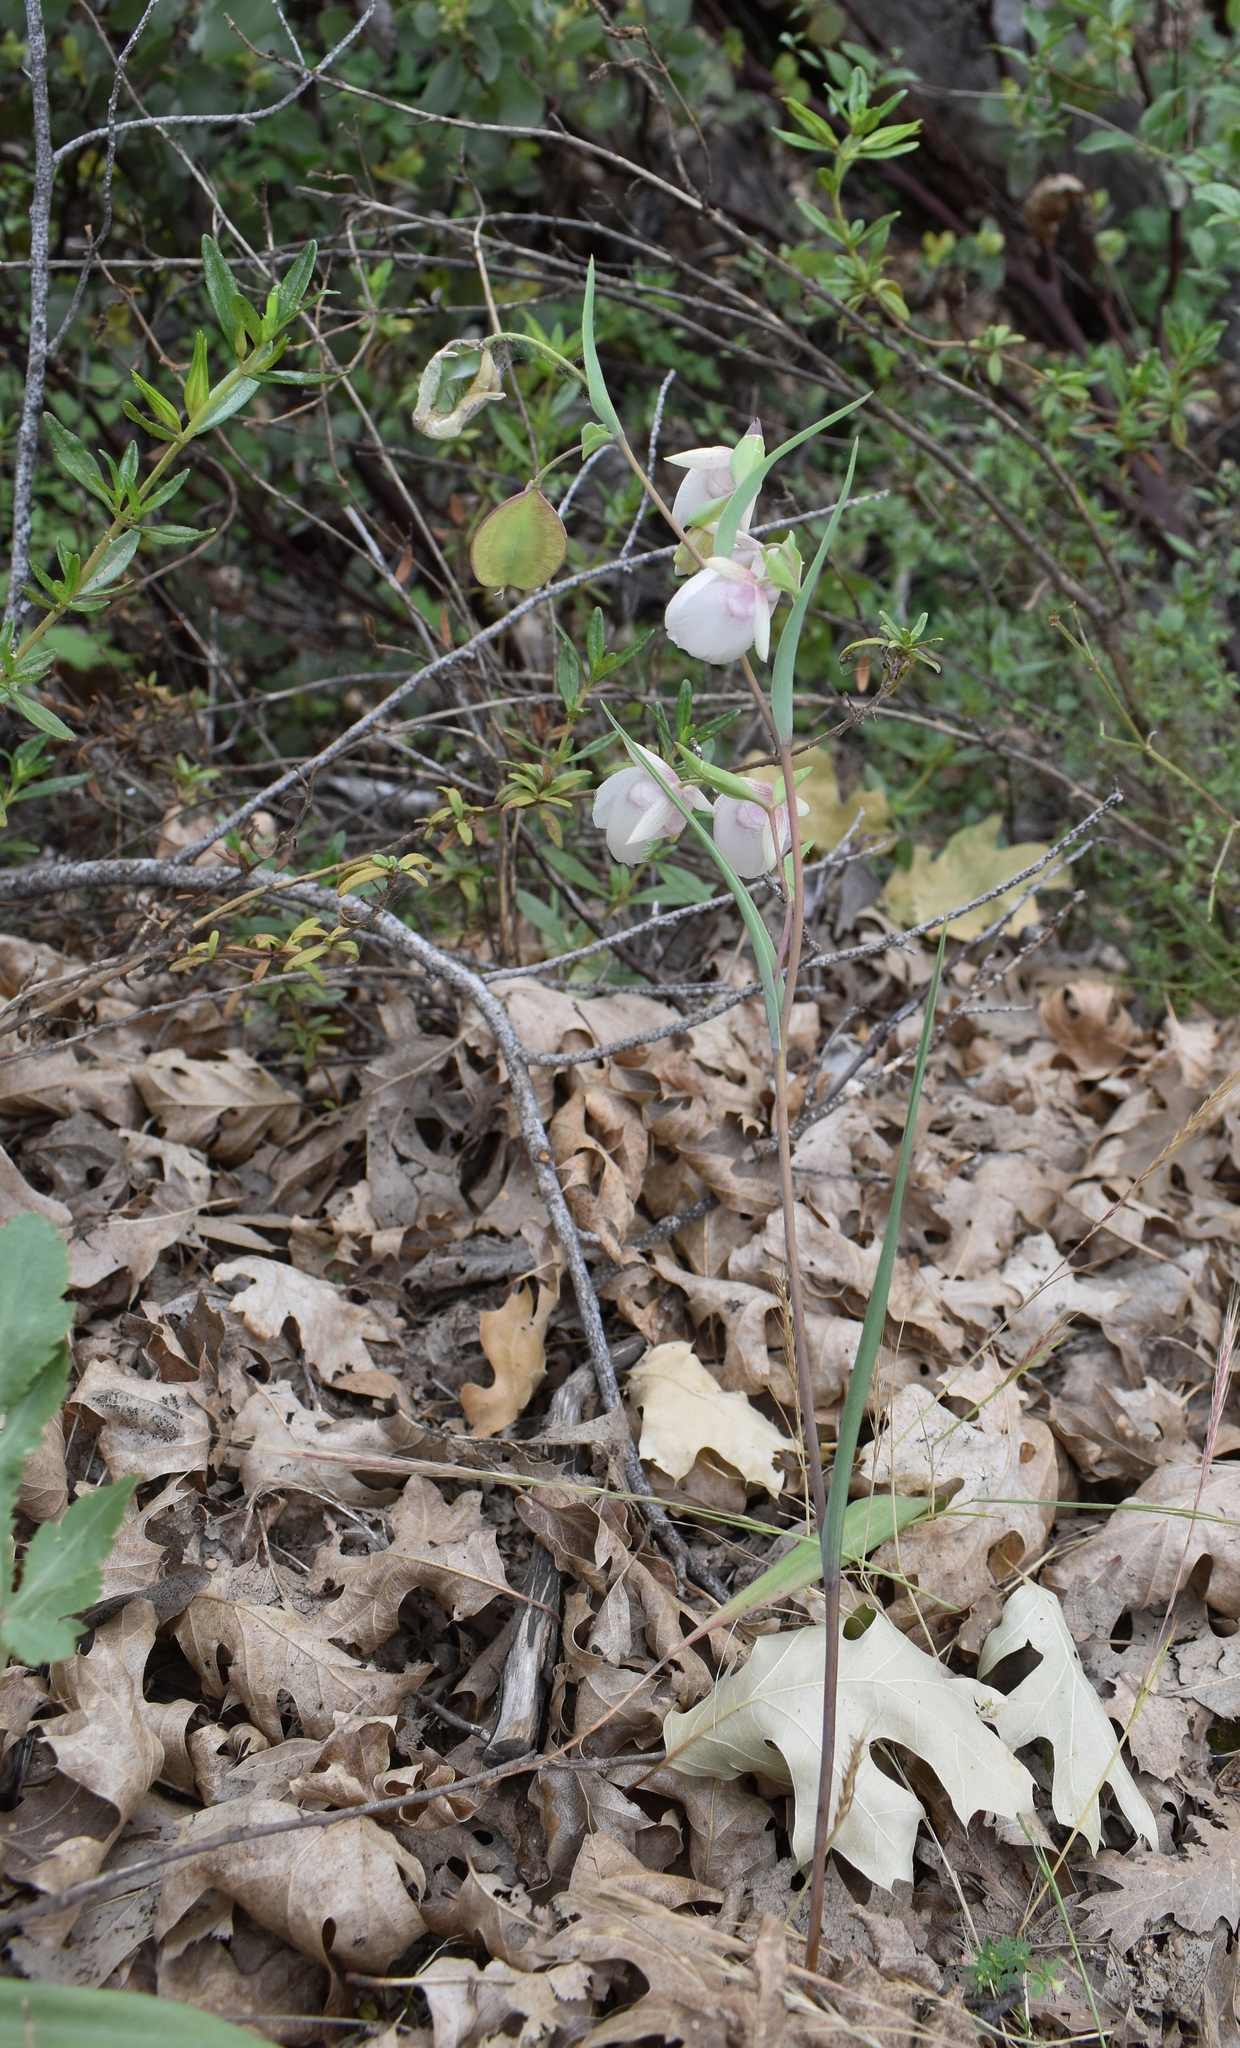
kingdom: Plantae
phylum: Tracheophyta
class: Liliopsida
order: Liliales
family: Liliaceae
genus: Calochortus
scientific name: Calochortus albus
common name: Fairy-lantern
